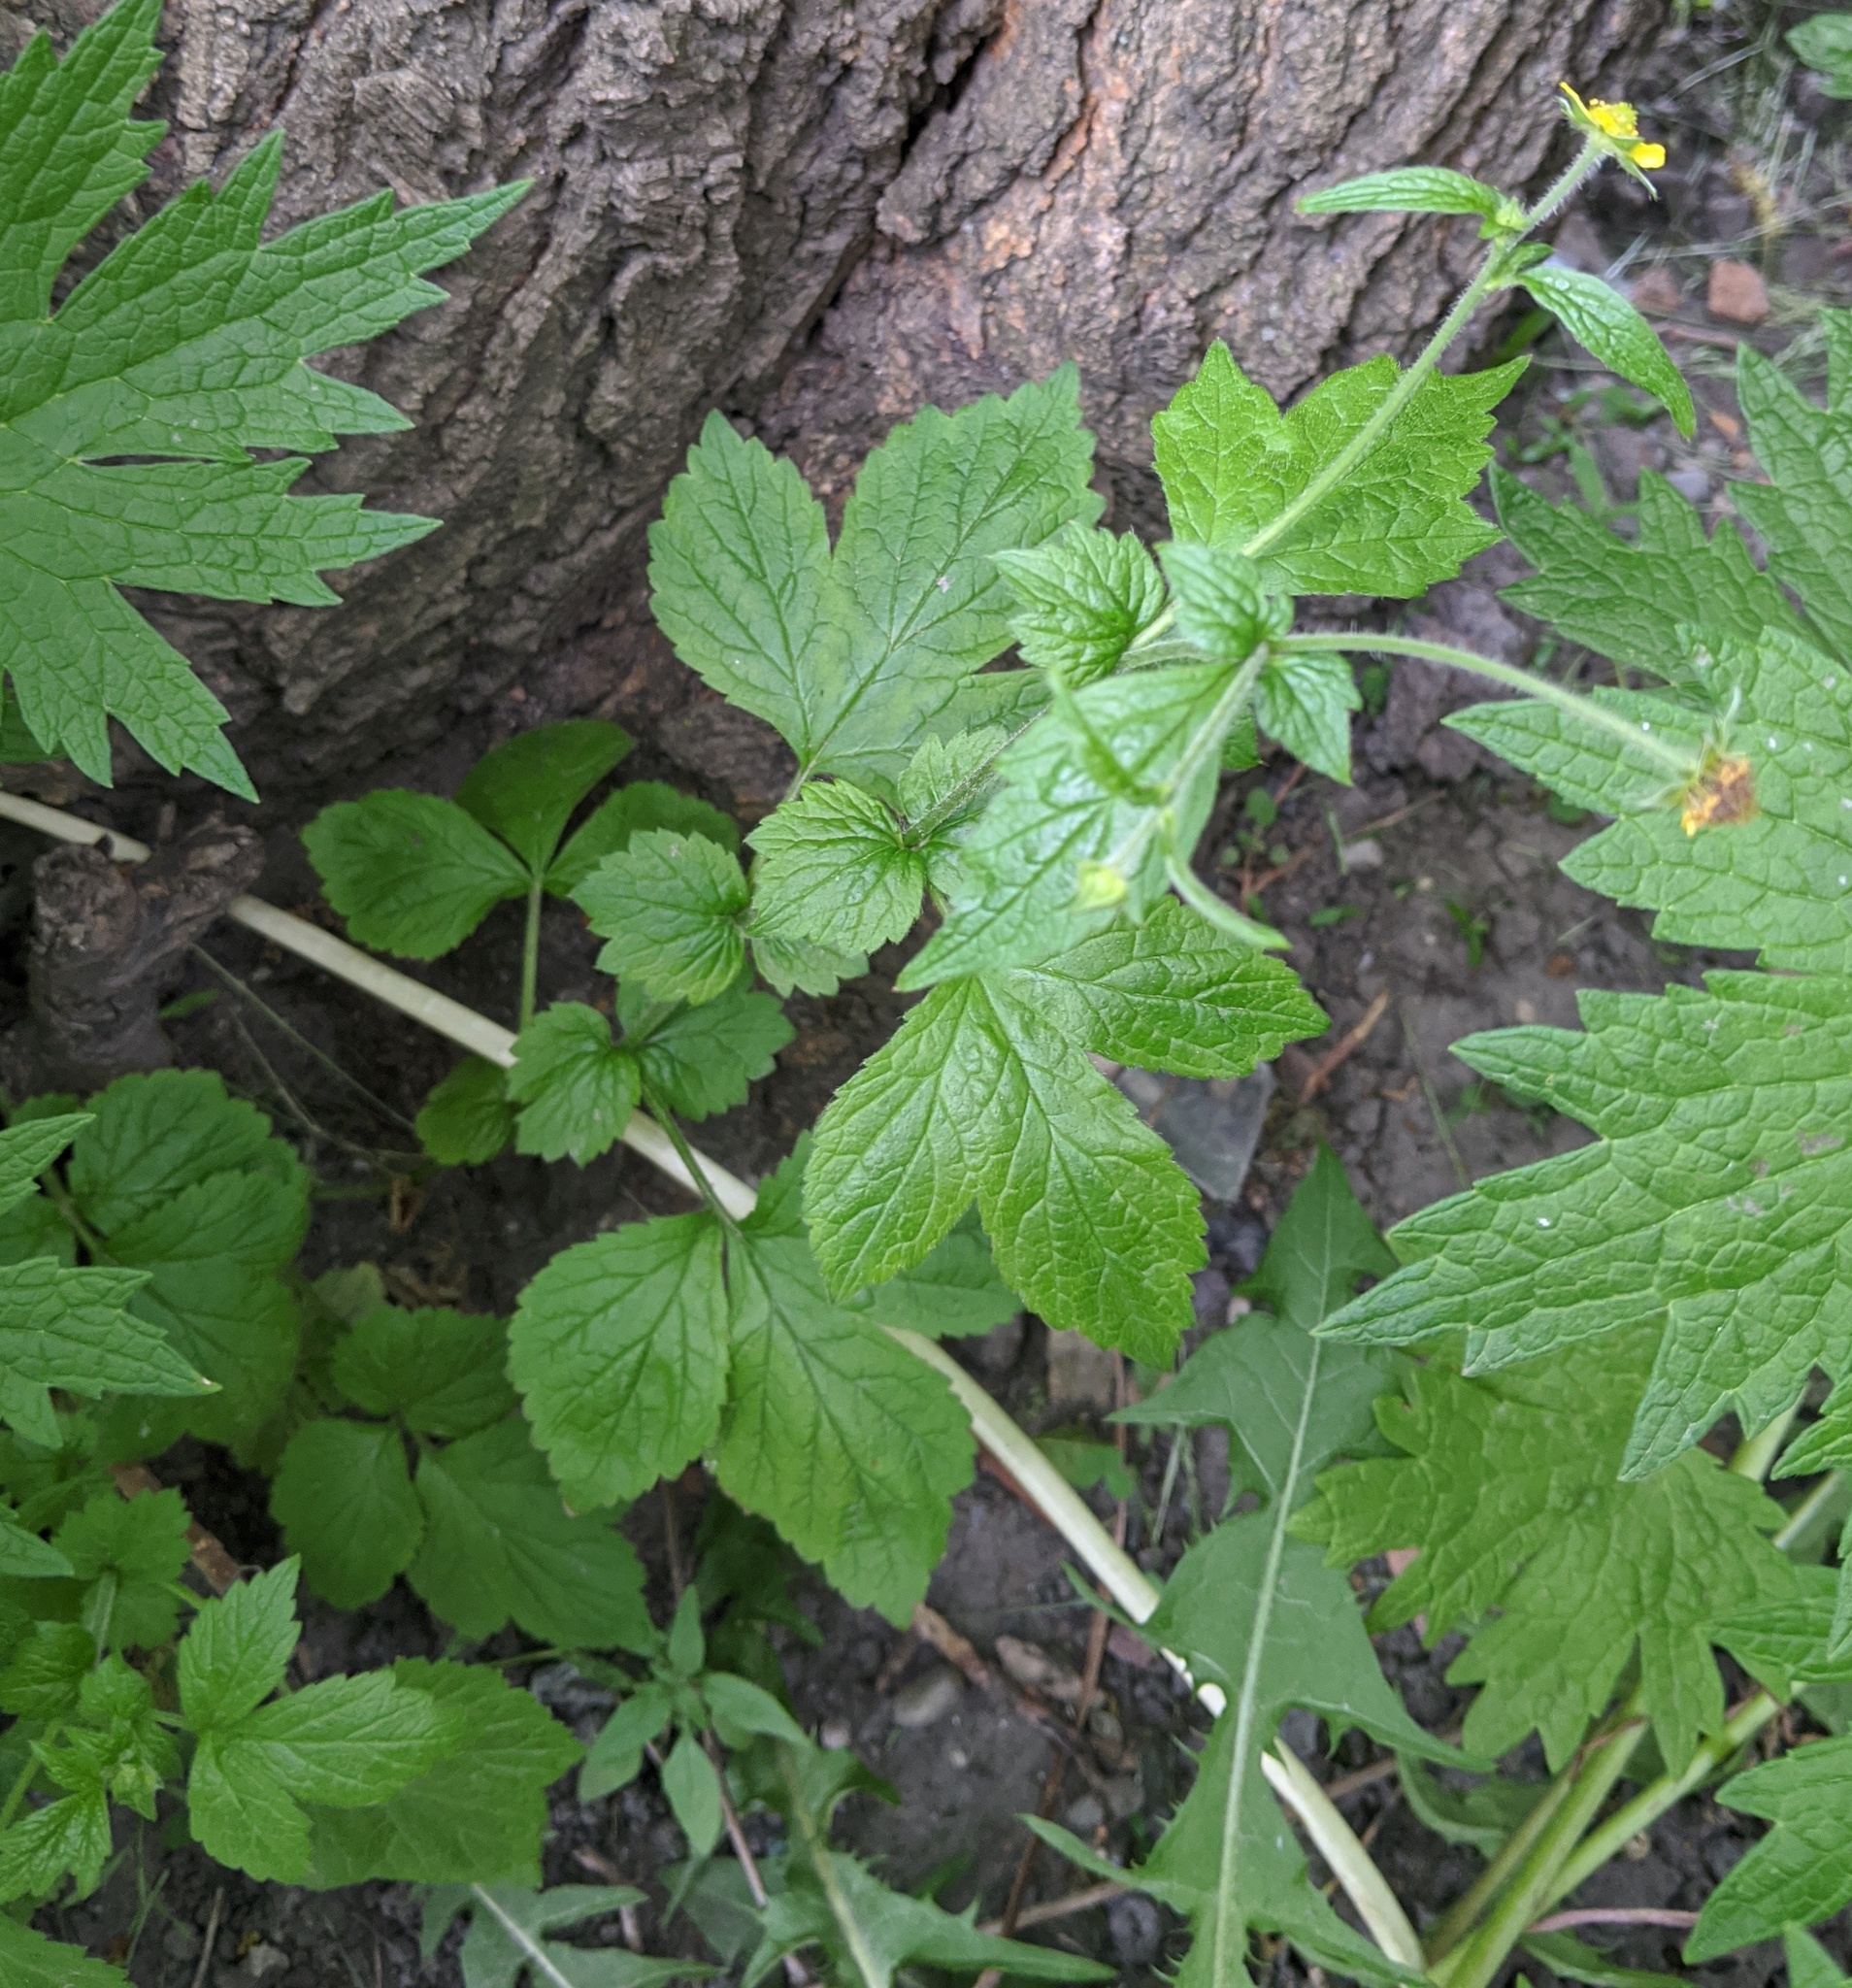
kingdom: Plantae
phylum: Tracheophyta
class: Magnoliopsida
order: Rosales
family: Rosaceae
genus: Geum
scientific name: Geum urbanum
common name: Wood avens
